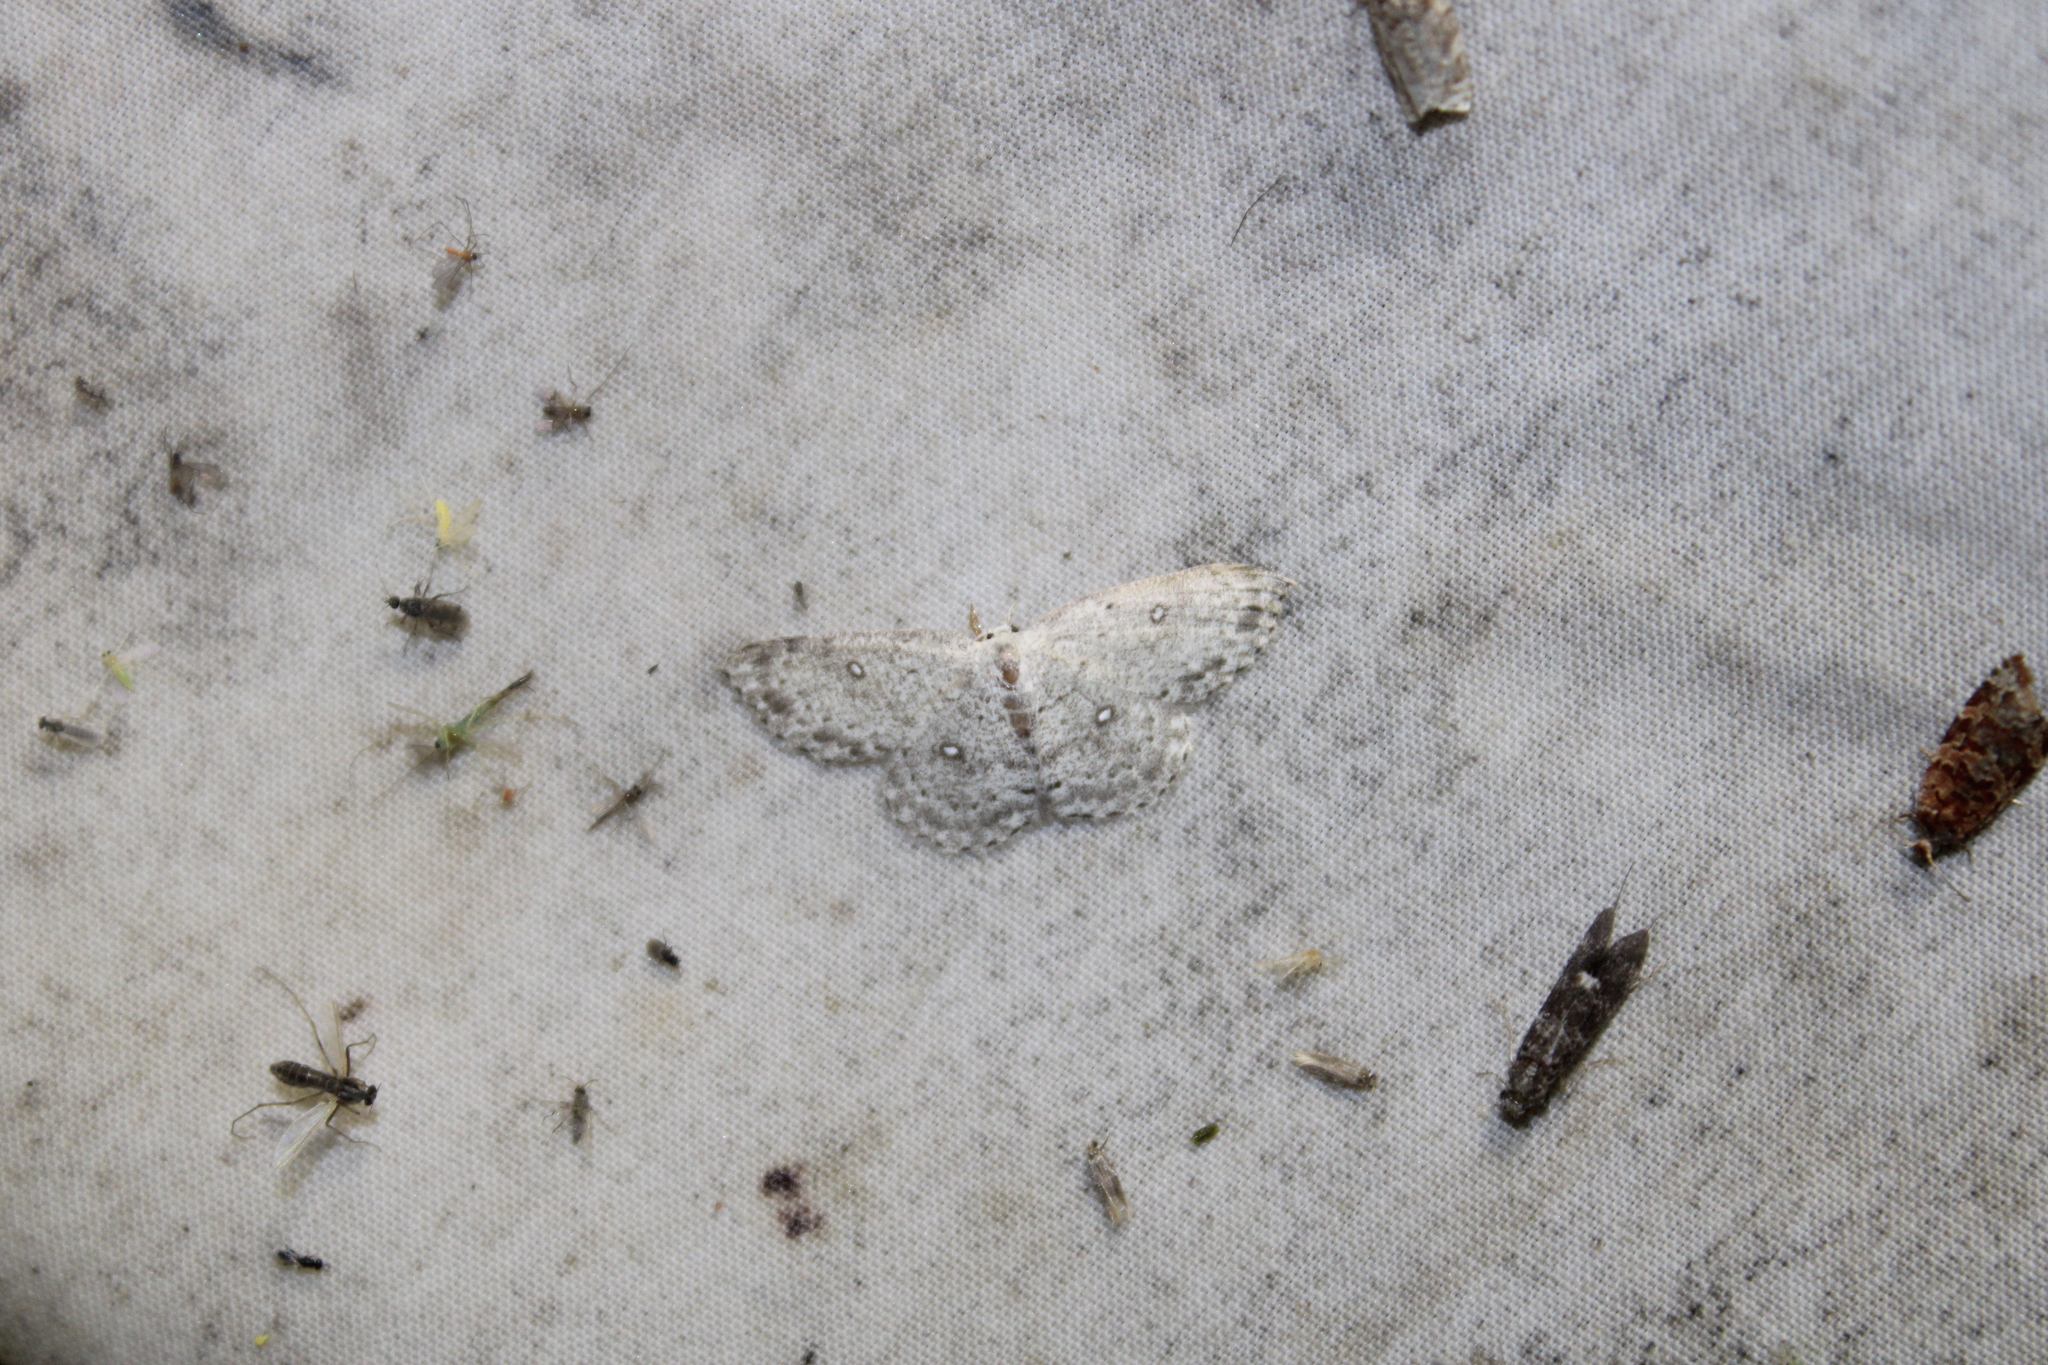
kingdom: Animalia
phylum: Arthropoda
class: Insecta
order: Lepidoptera
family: Geometridae
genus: Cyclophora
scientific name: Cyclophora pendulinaria
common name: Sweet fern geometer
